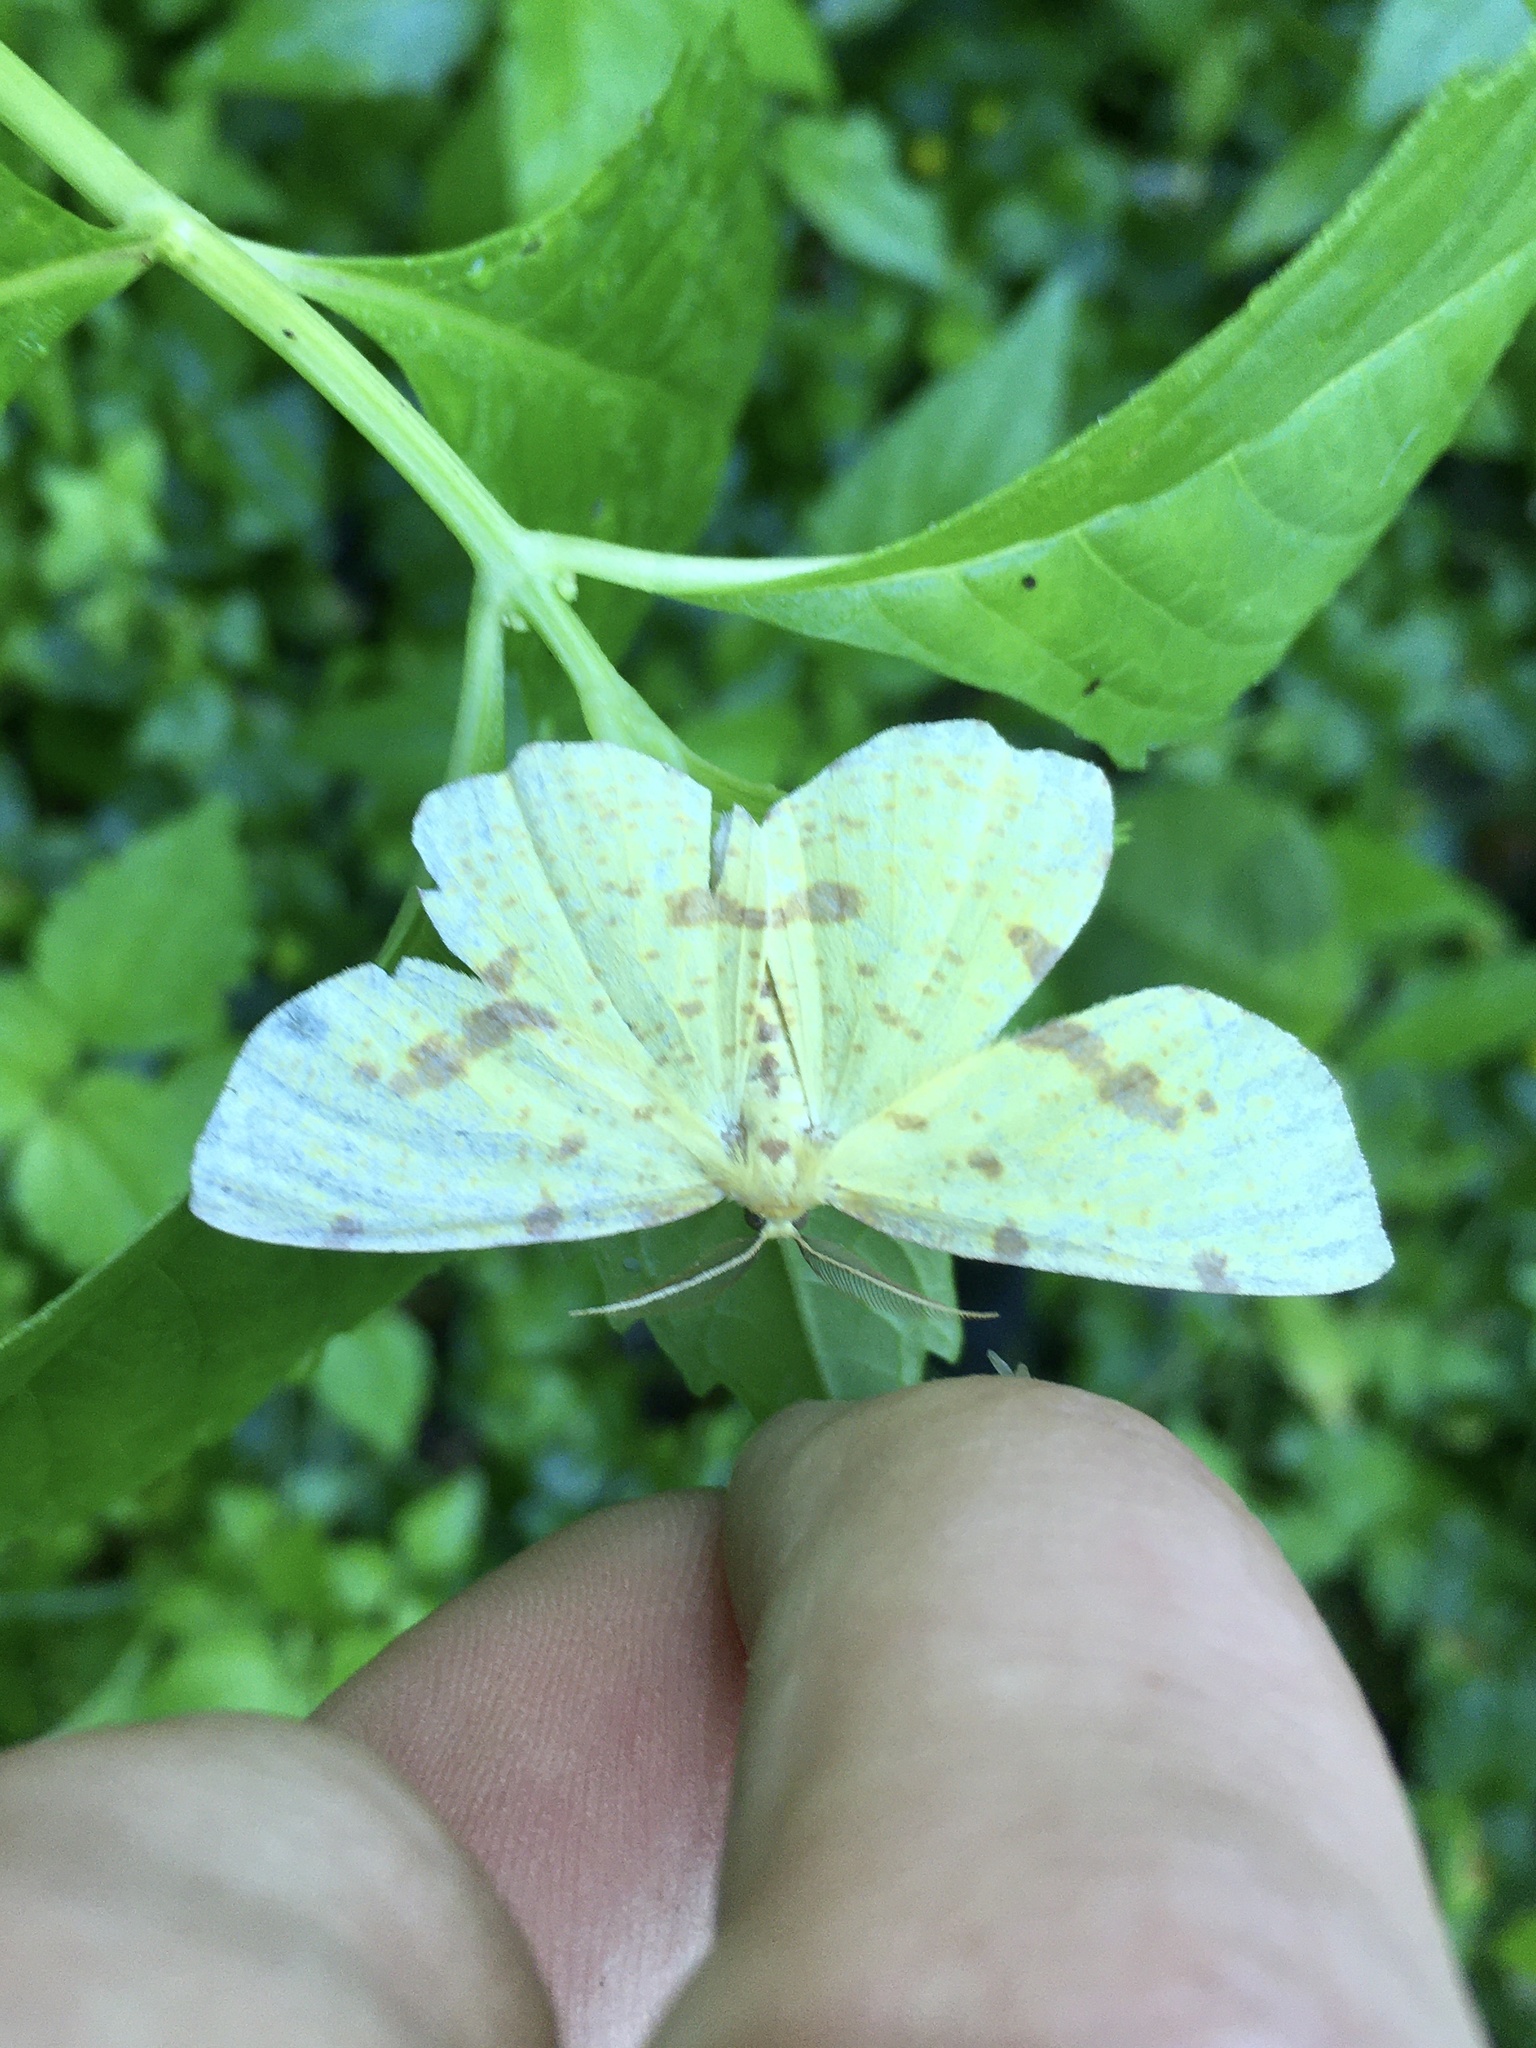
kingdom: Animalia
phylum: Arthropoda
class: Insecta
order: Lepidoptera
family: Geometridae
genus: Xanthotype
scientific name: Xanthotype
